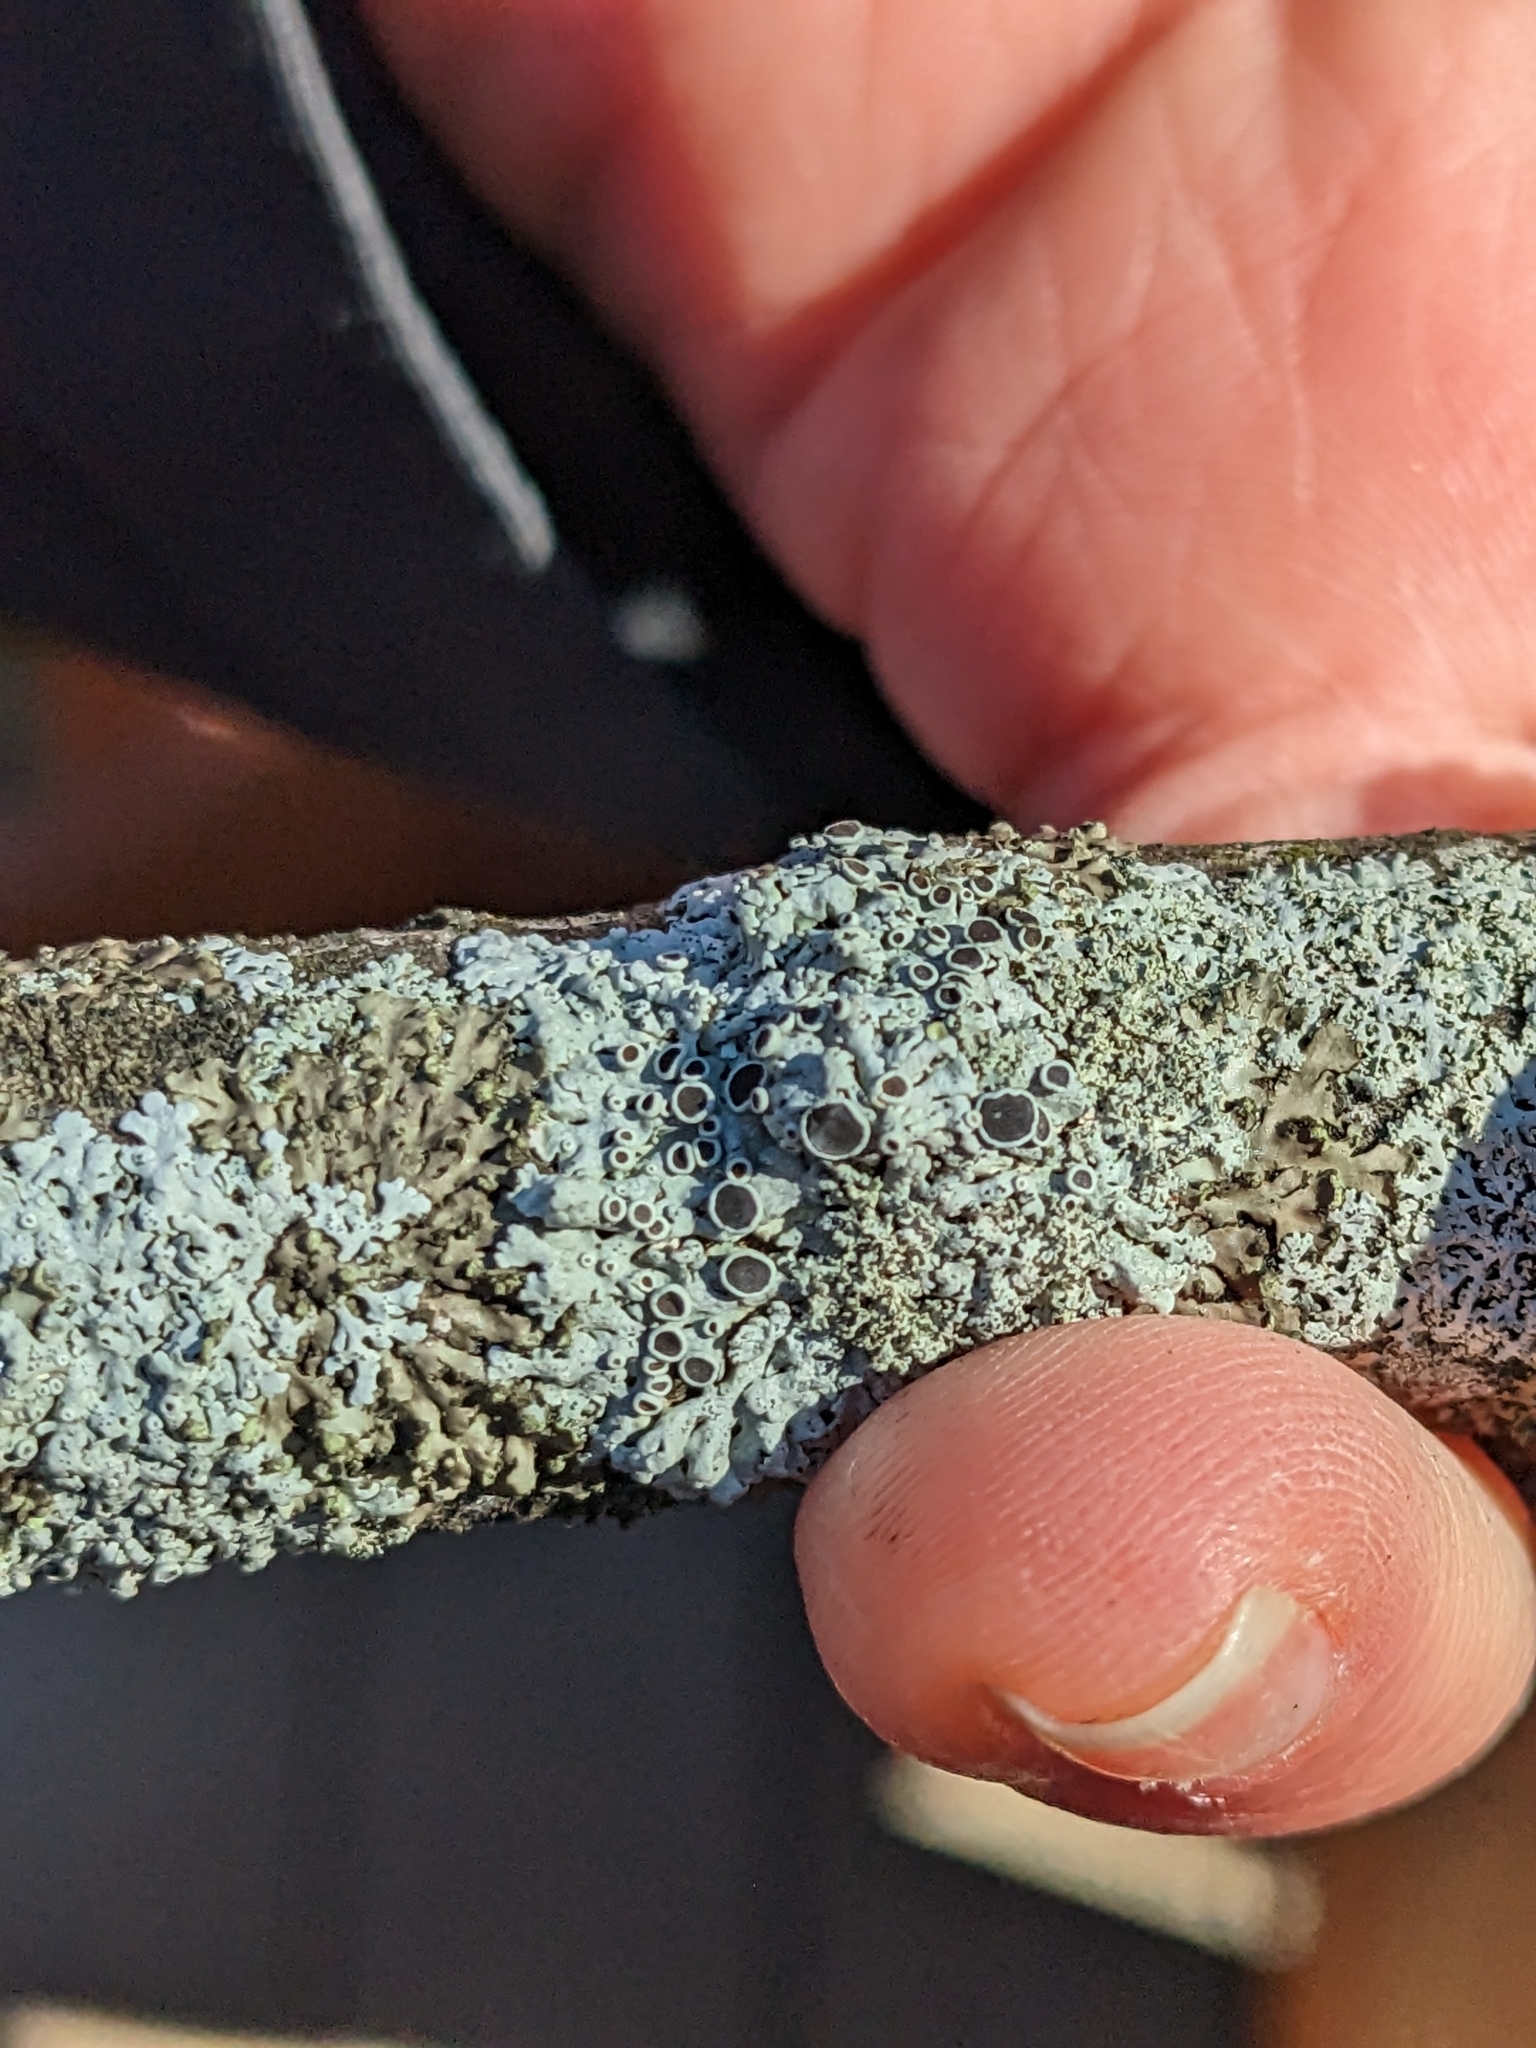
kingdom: Fungi
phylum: Ascomycota
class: Lecanoromycetes
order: Caliciales
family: Physciaceae
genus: Physcia
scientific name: Physcia stellaris
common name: Star rosette lichen
